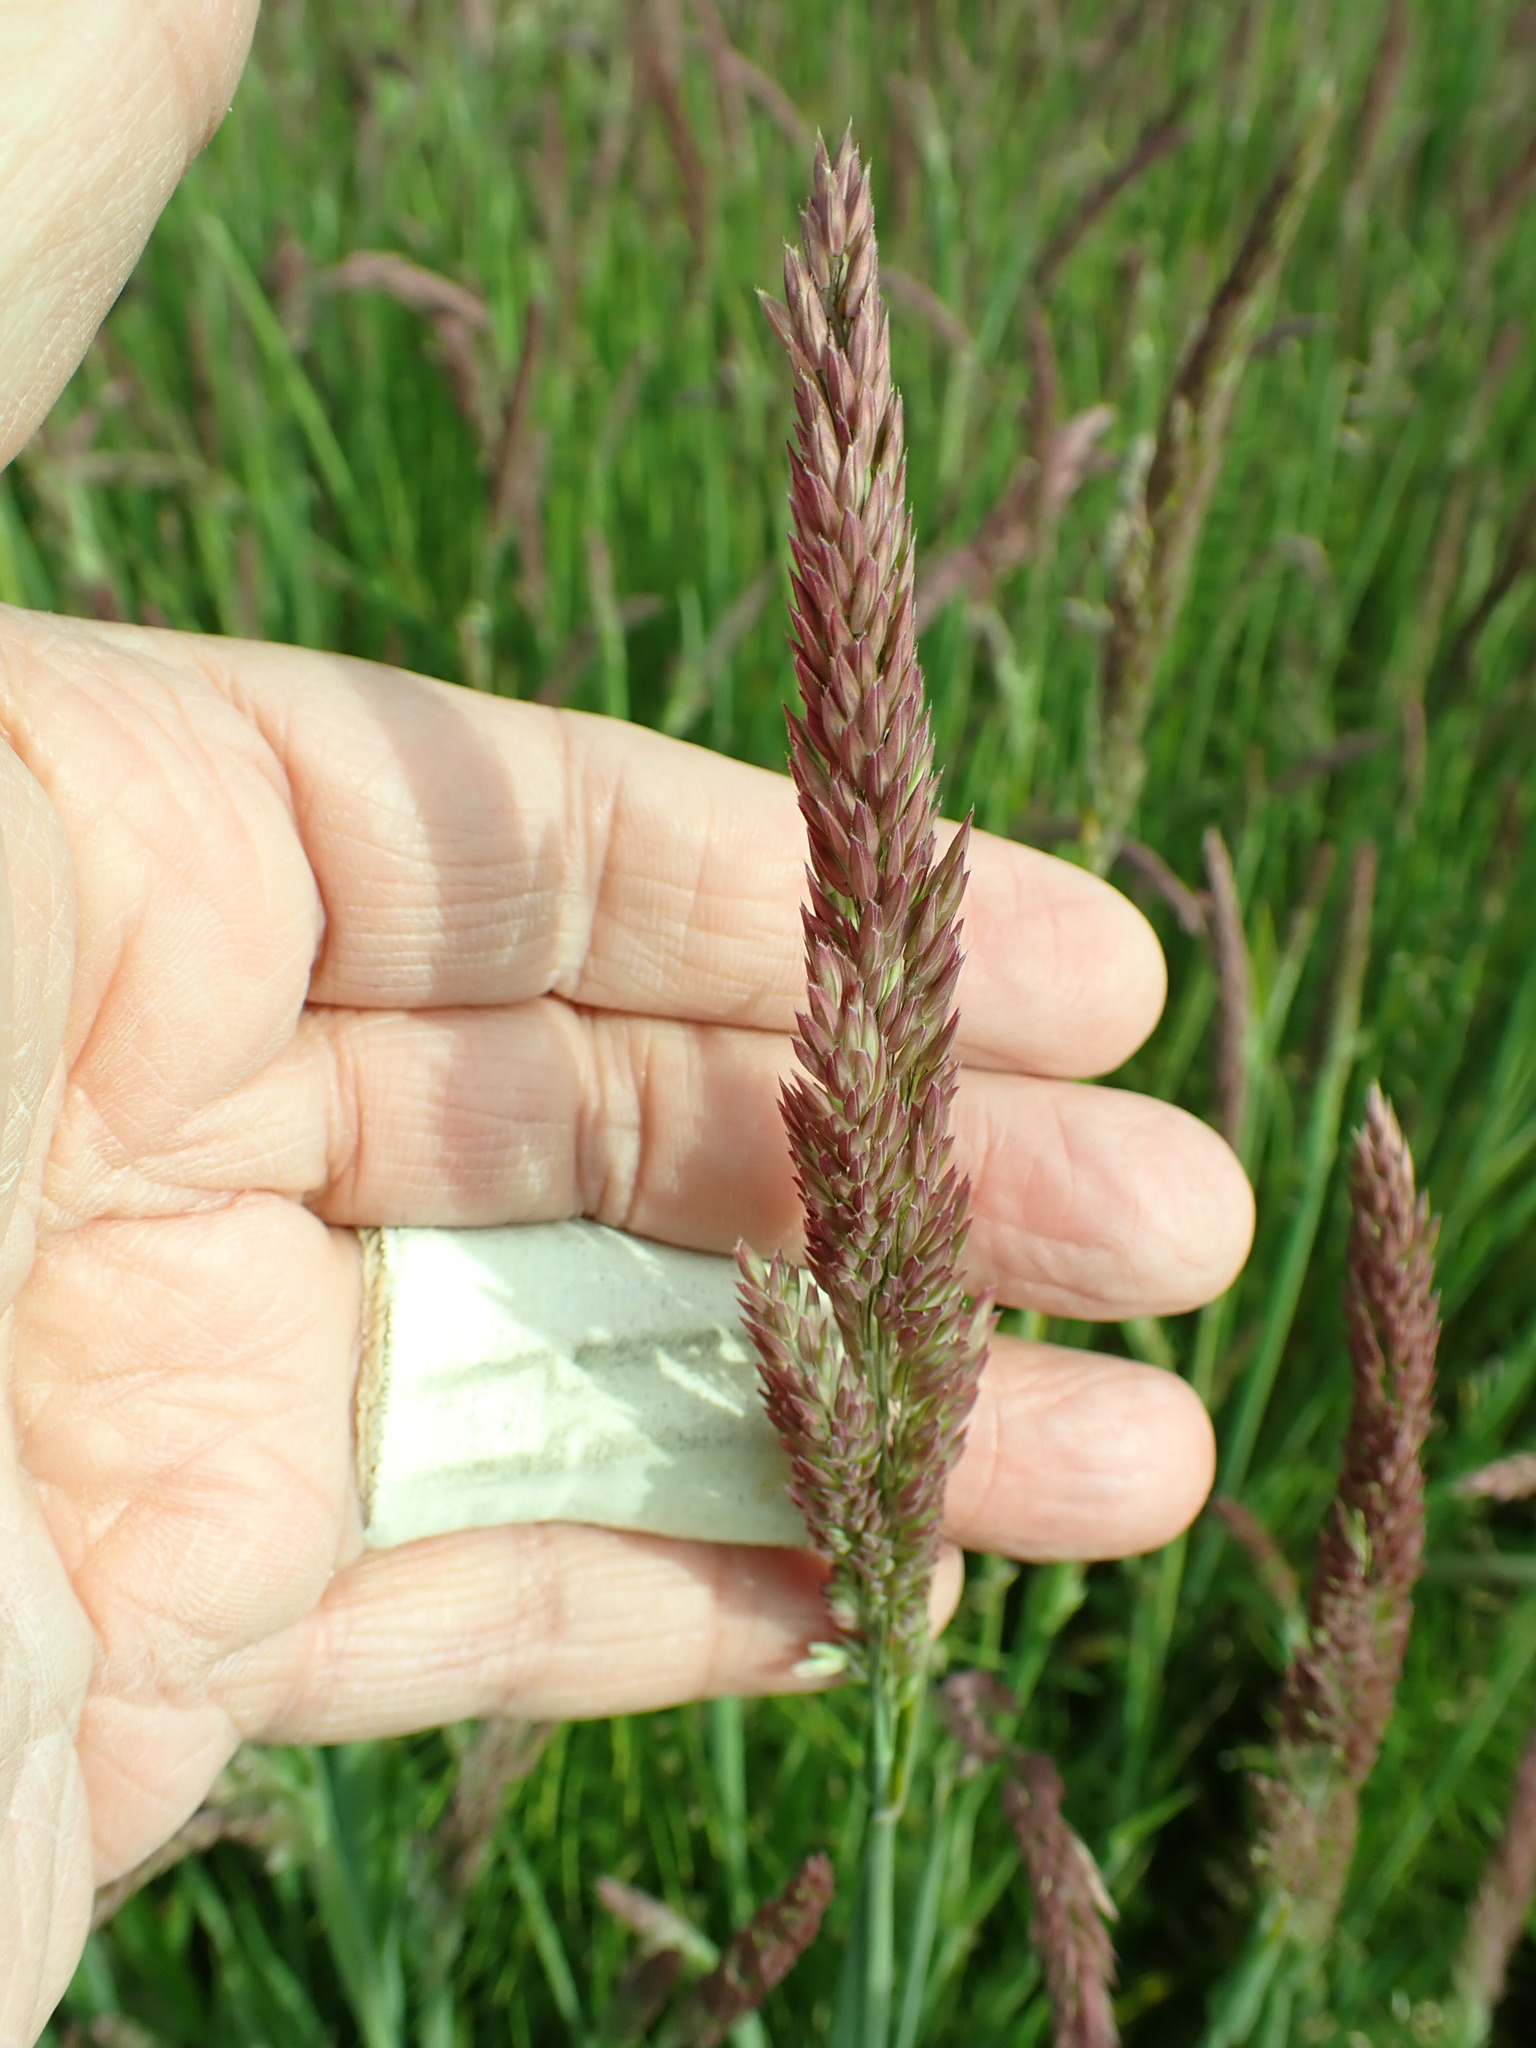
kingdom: Plantae
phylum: Tracheophyta
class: Liliopsida
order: Poales
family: Poaceae
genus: Holcus
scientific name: Holcus lanatus
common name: Yorkshire-fog
